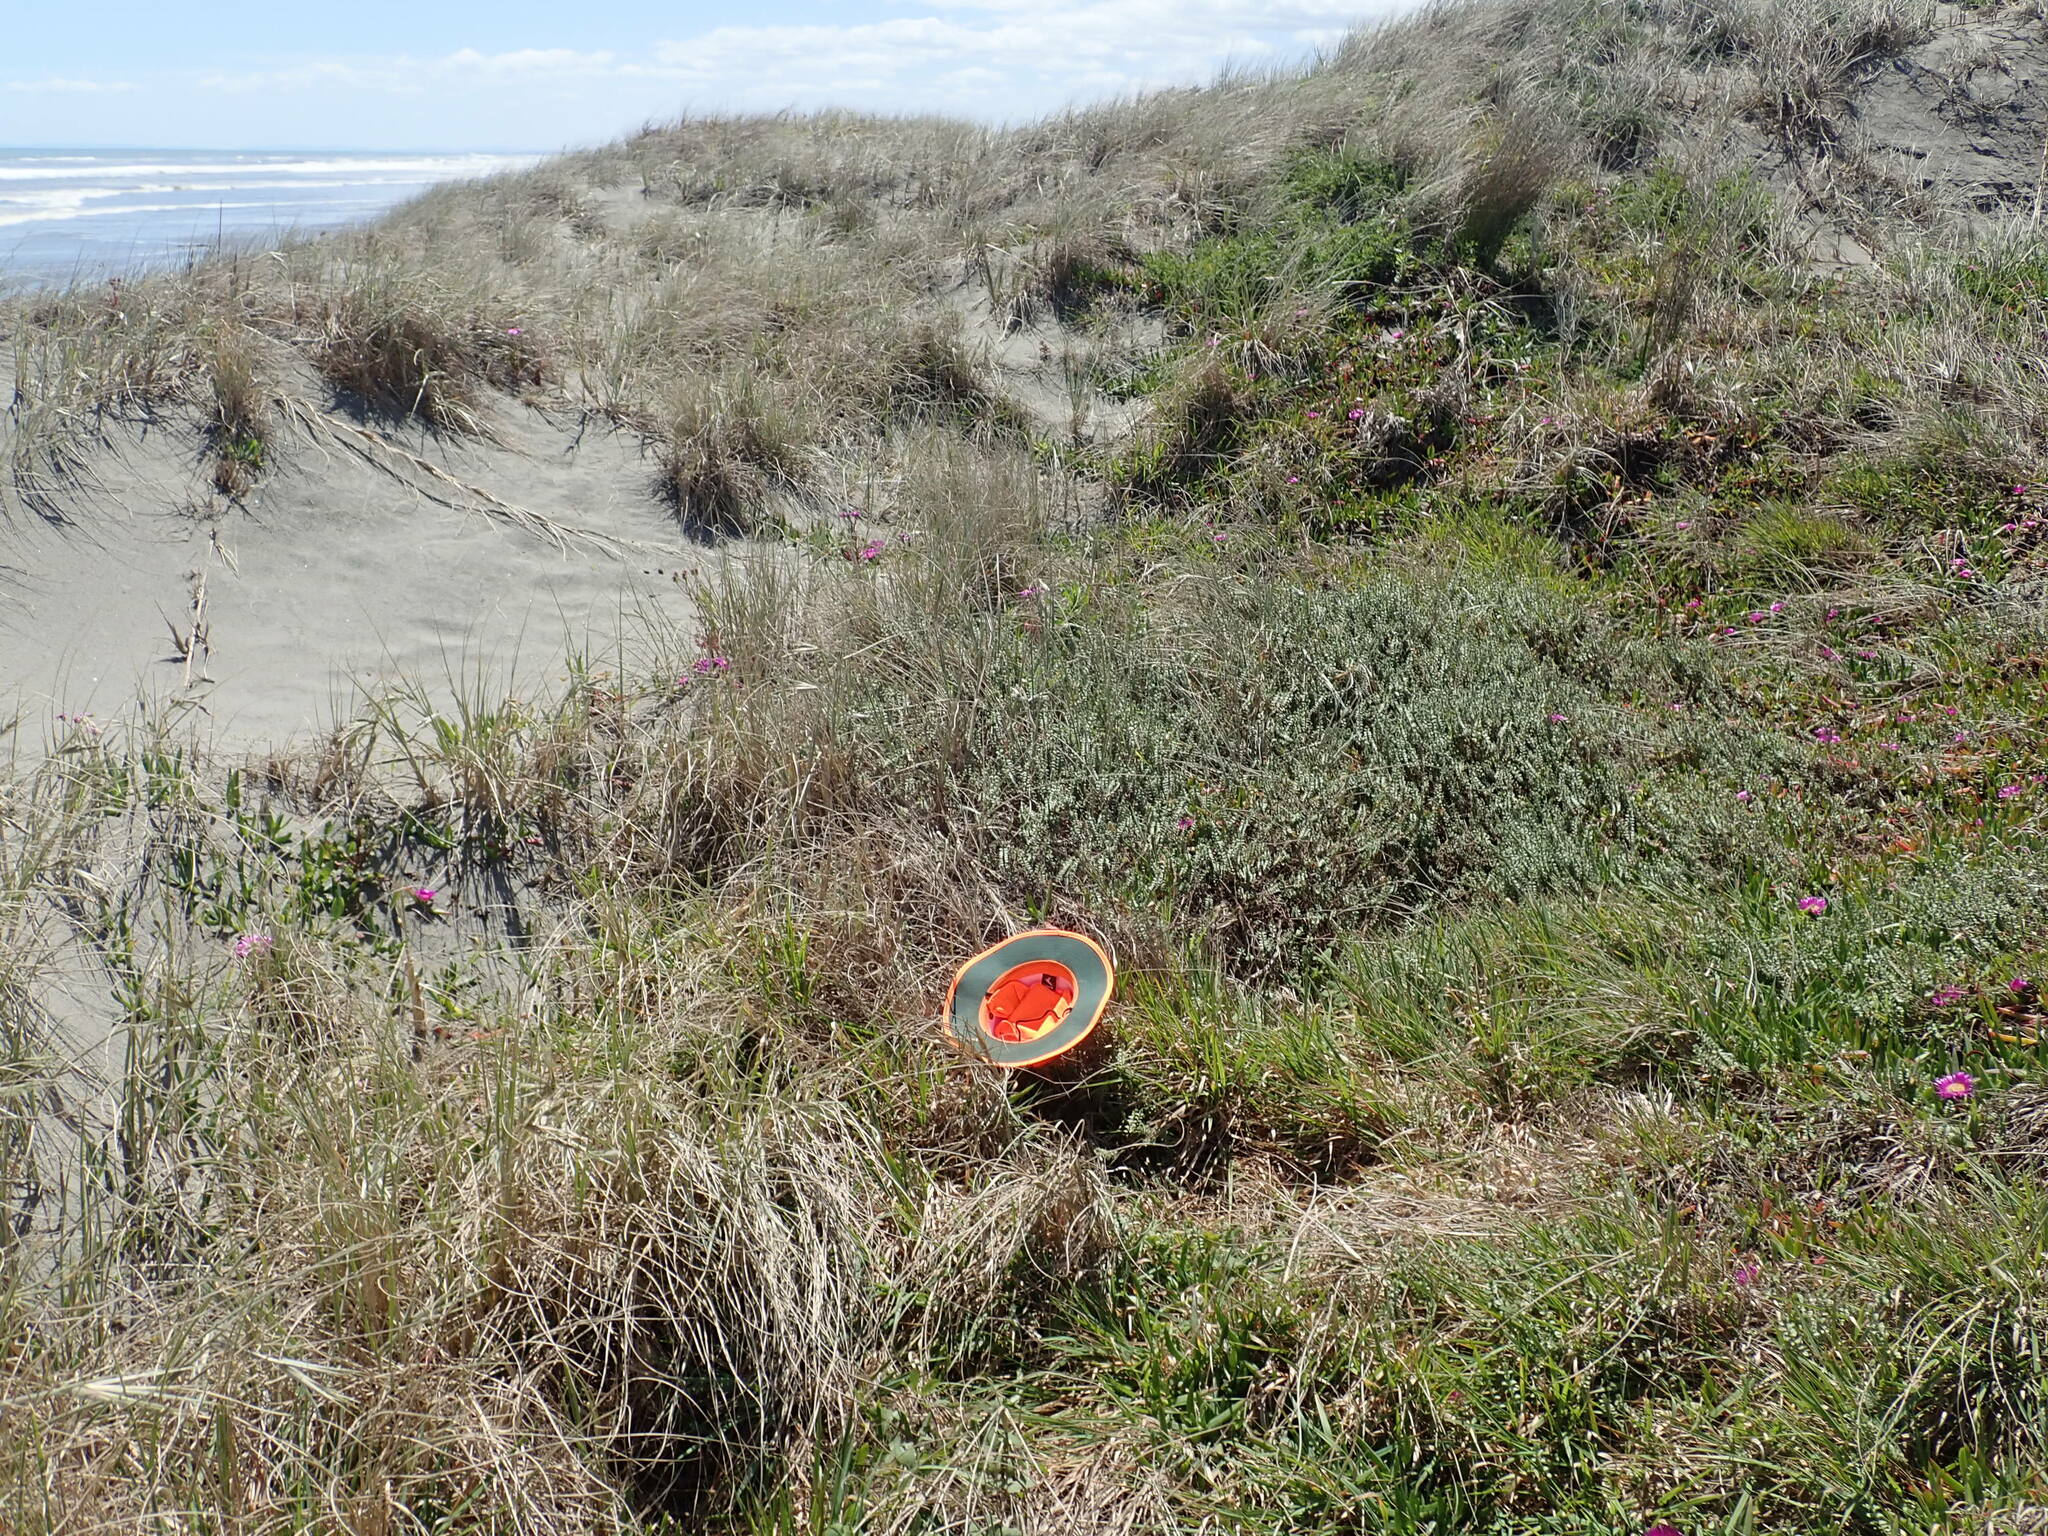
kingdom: Plantae
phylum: Tracheophyta
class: Liliopsida
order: Poales
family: Poaceae
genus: Lachnagrostis
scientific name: Lachnagrostis billardierei
